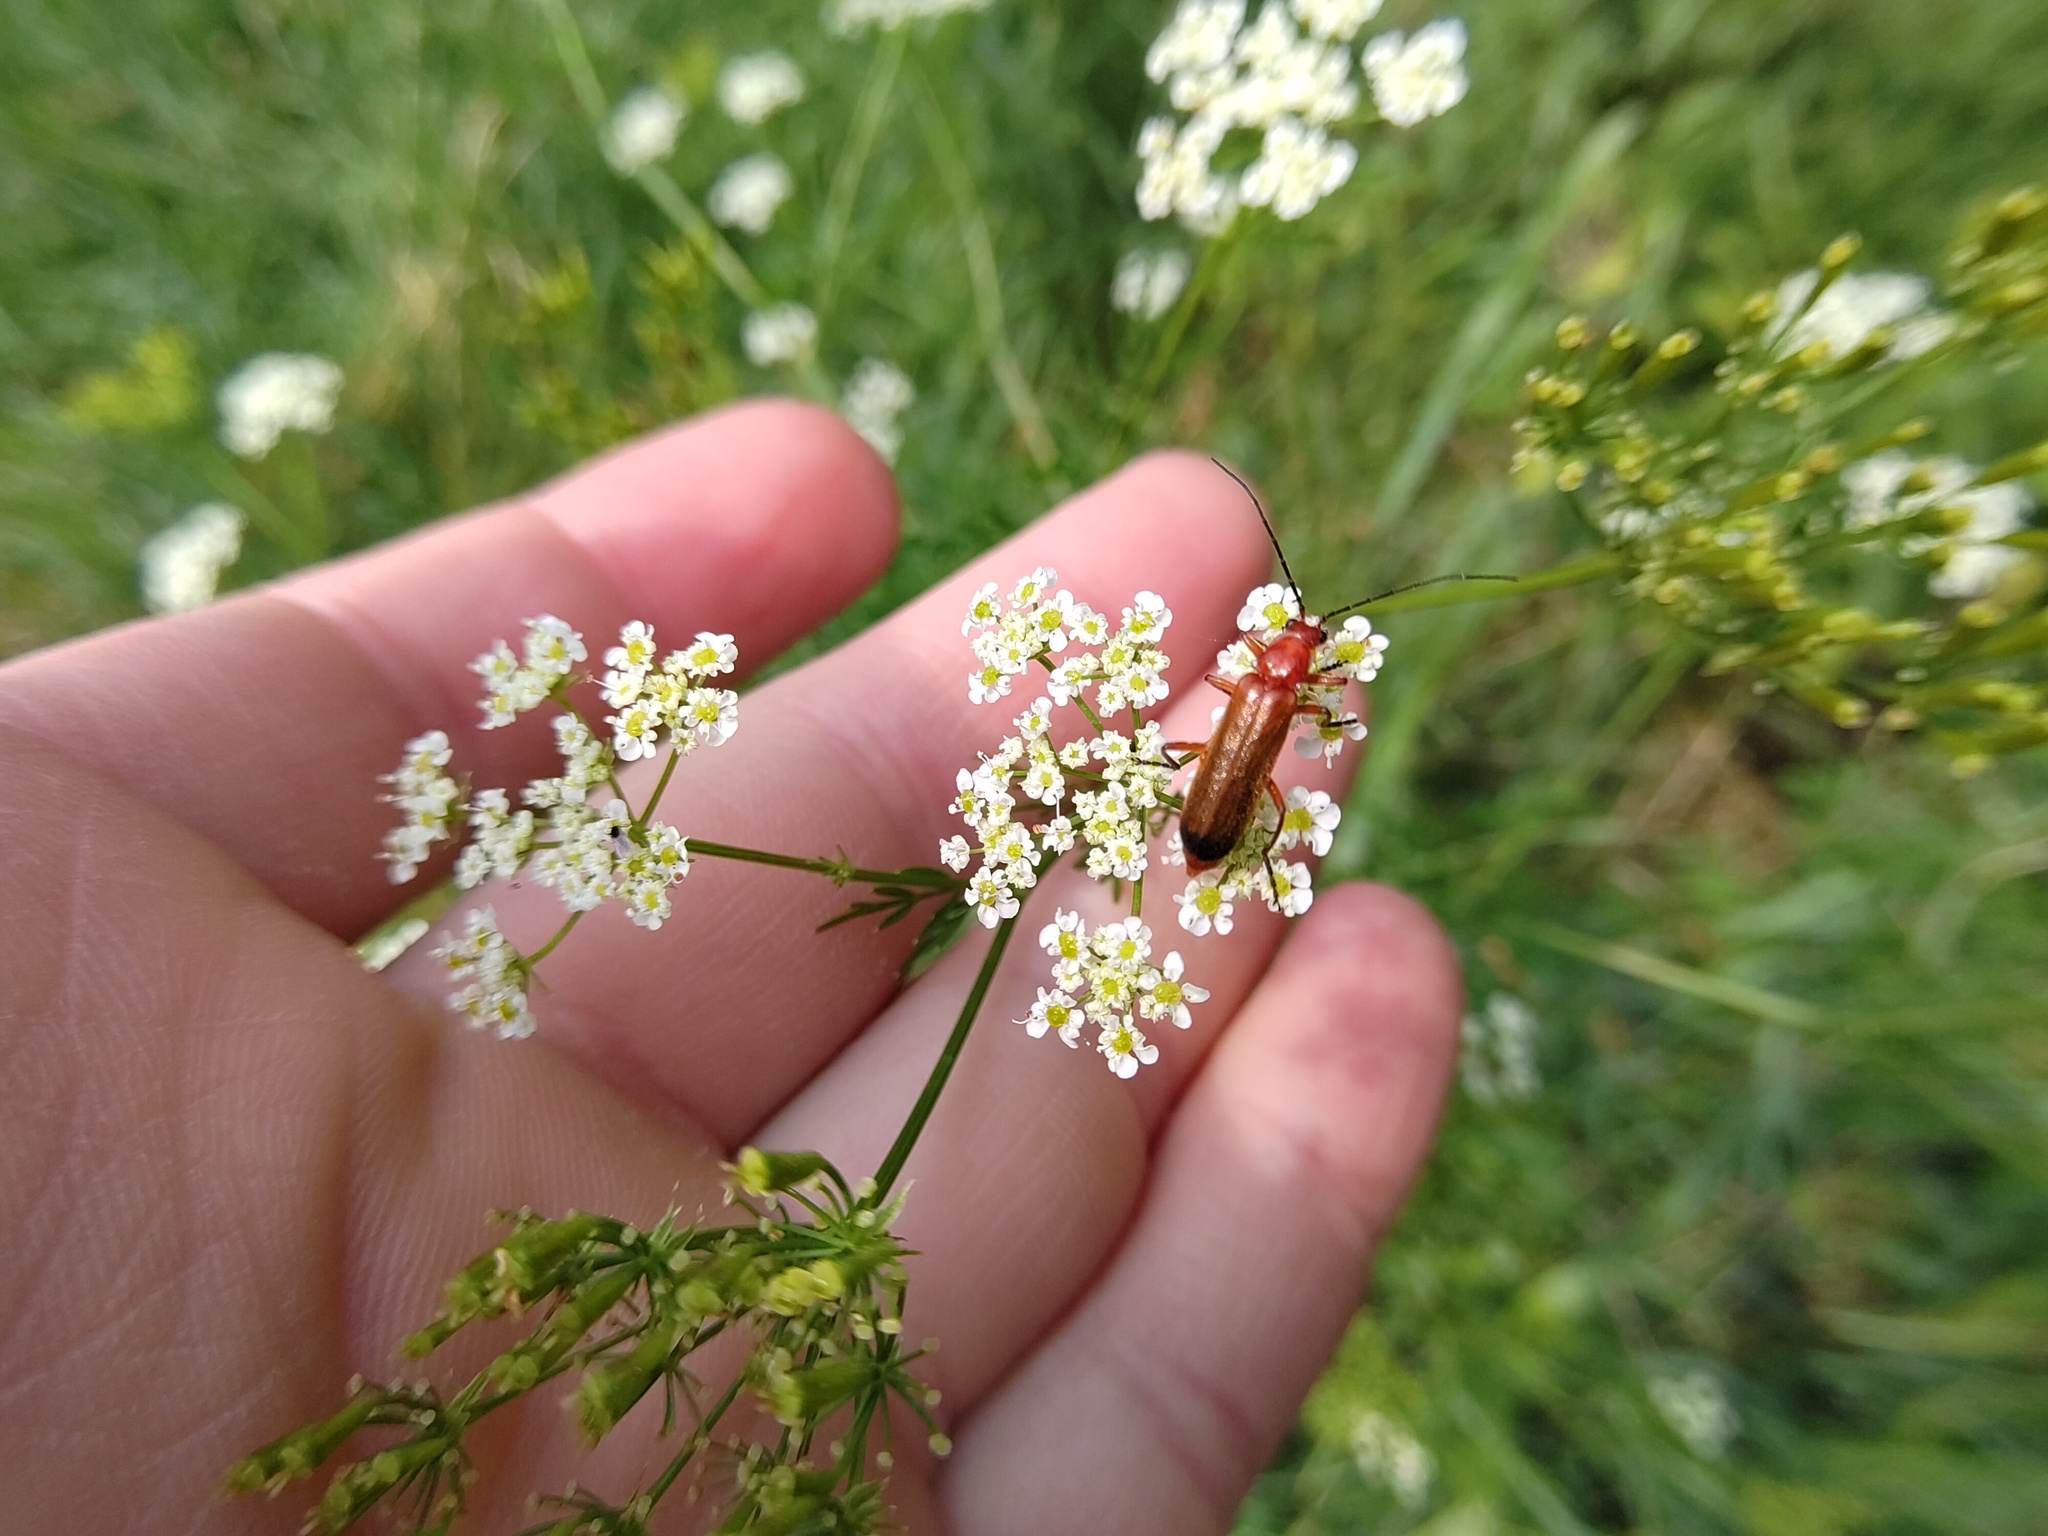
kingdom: Animalia
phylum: Arthropoda
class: Insecta
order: Coleoptera
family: Cantharidae
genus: Rhagonycha
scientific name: Rhagonycha fulva
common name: Common red soldier beetle
